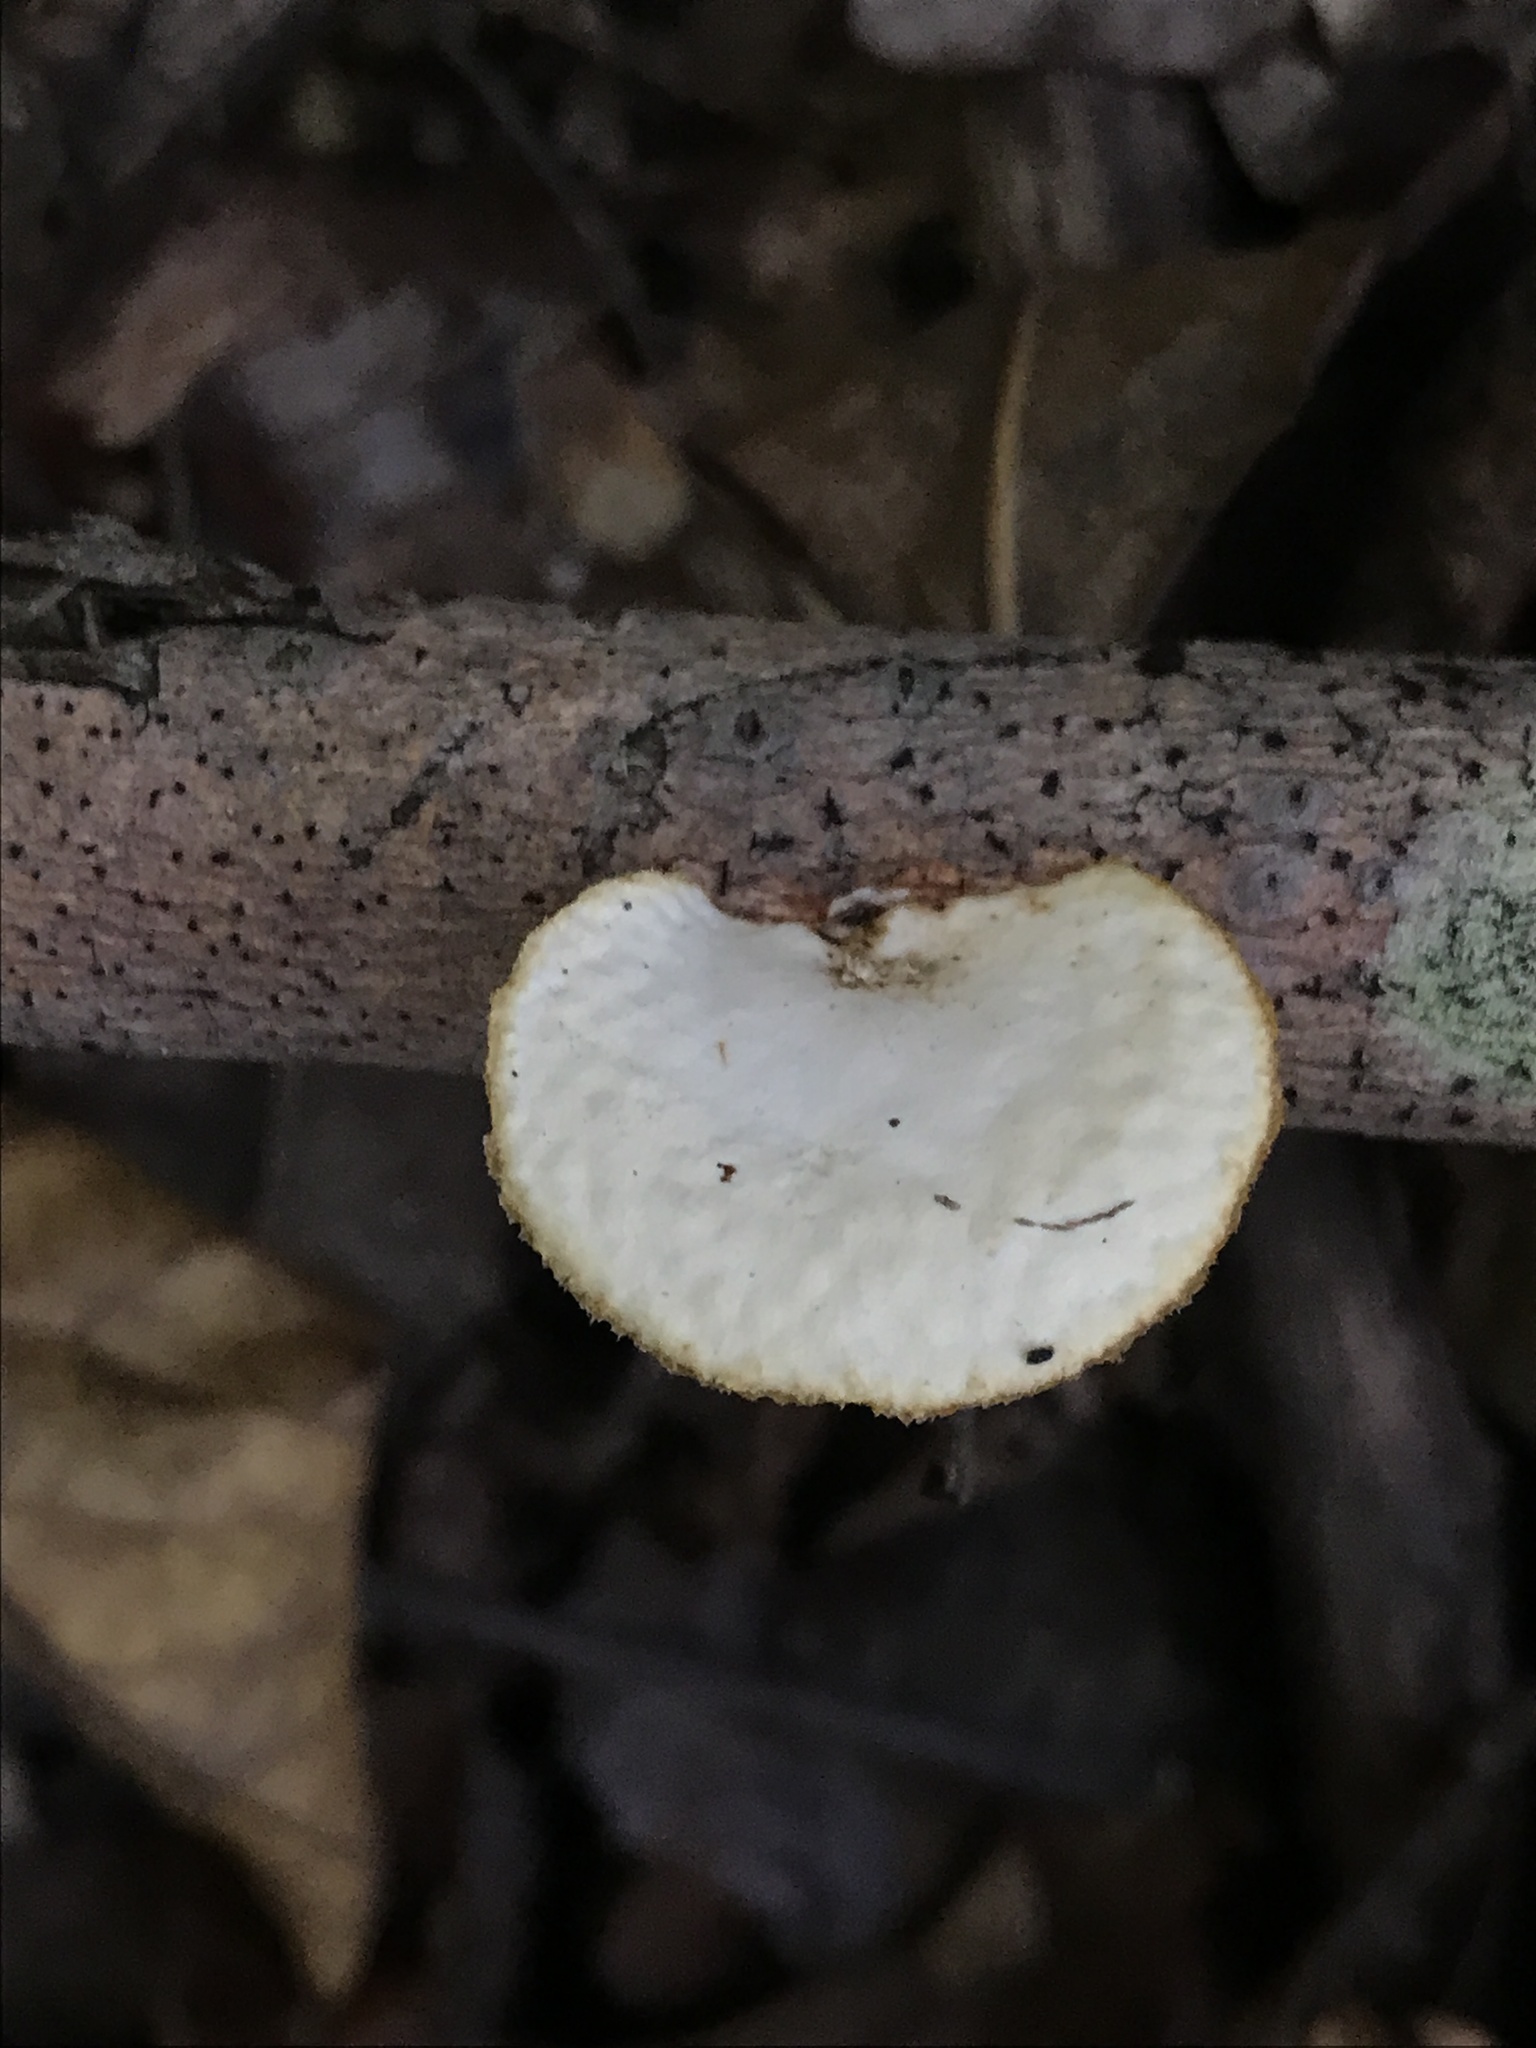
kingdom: Fungi
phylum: Basidiomycota
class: Agaricomycetes
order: Polyporales
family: Polyporaceae
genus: Neofavolus
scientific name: Neofavolus alveolaris
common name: Hexagonal-pored polypore
